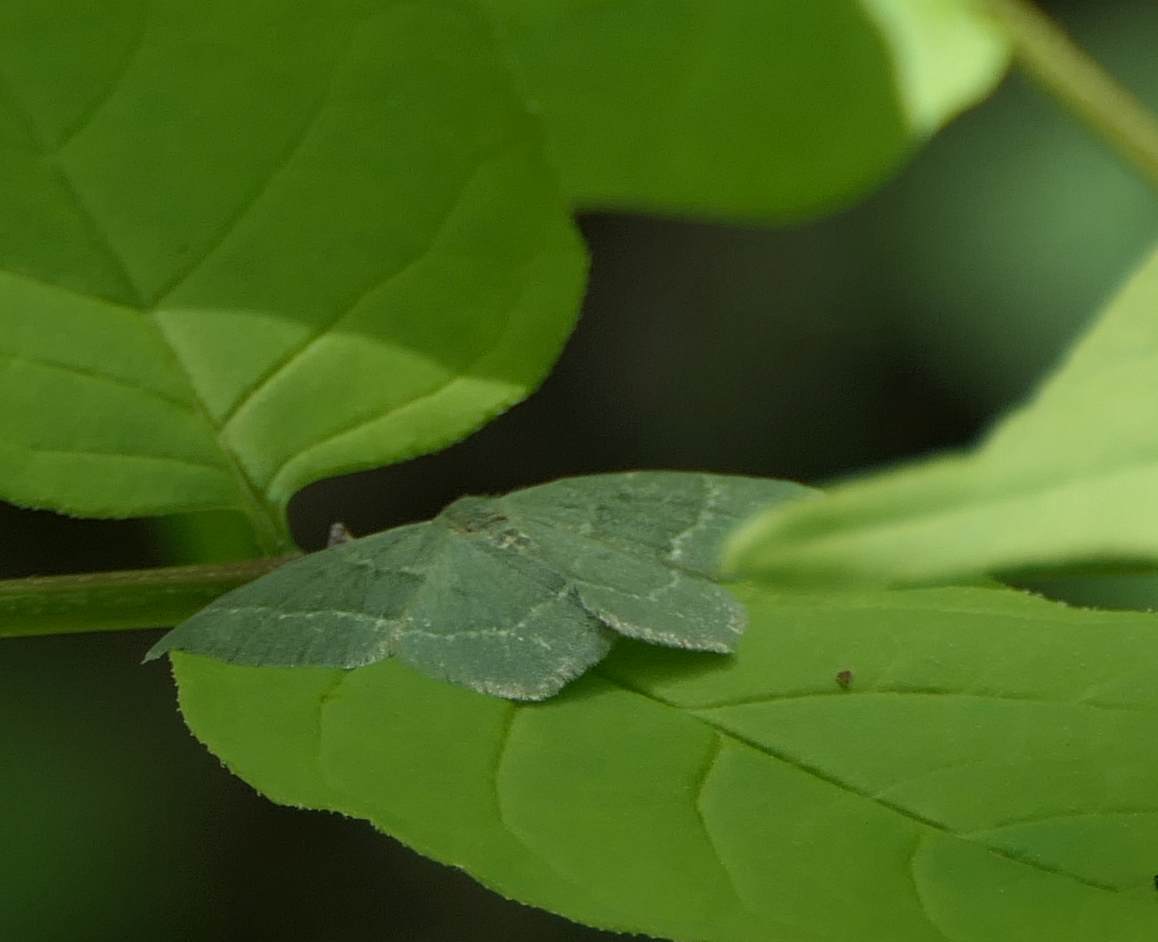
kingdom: Animalia
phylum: Arthropoda
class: Insecta
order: Lepidoptera
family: Geometridae
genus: Thalera
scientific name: Thalera pistasciaria
